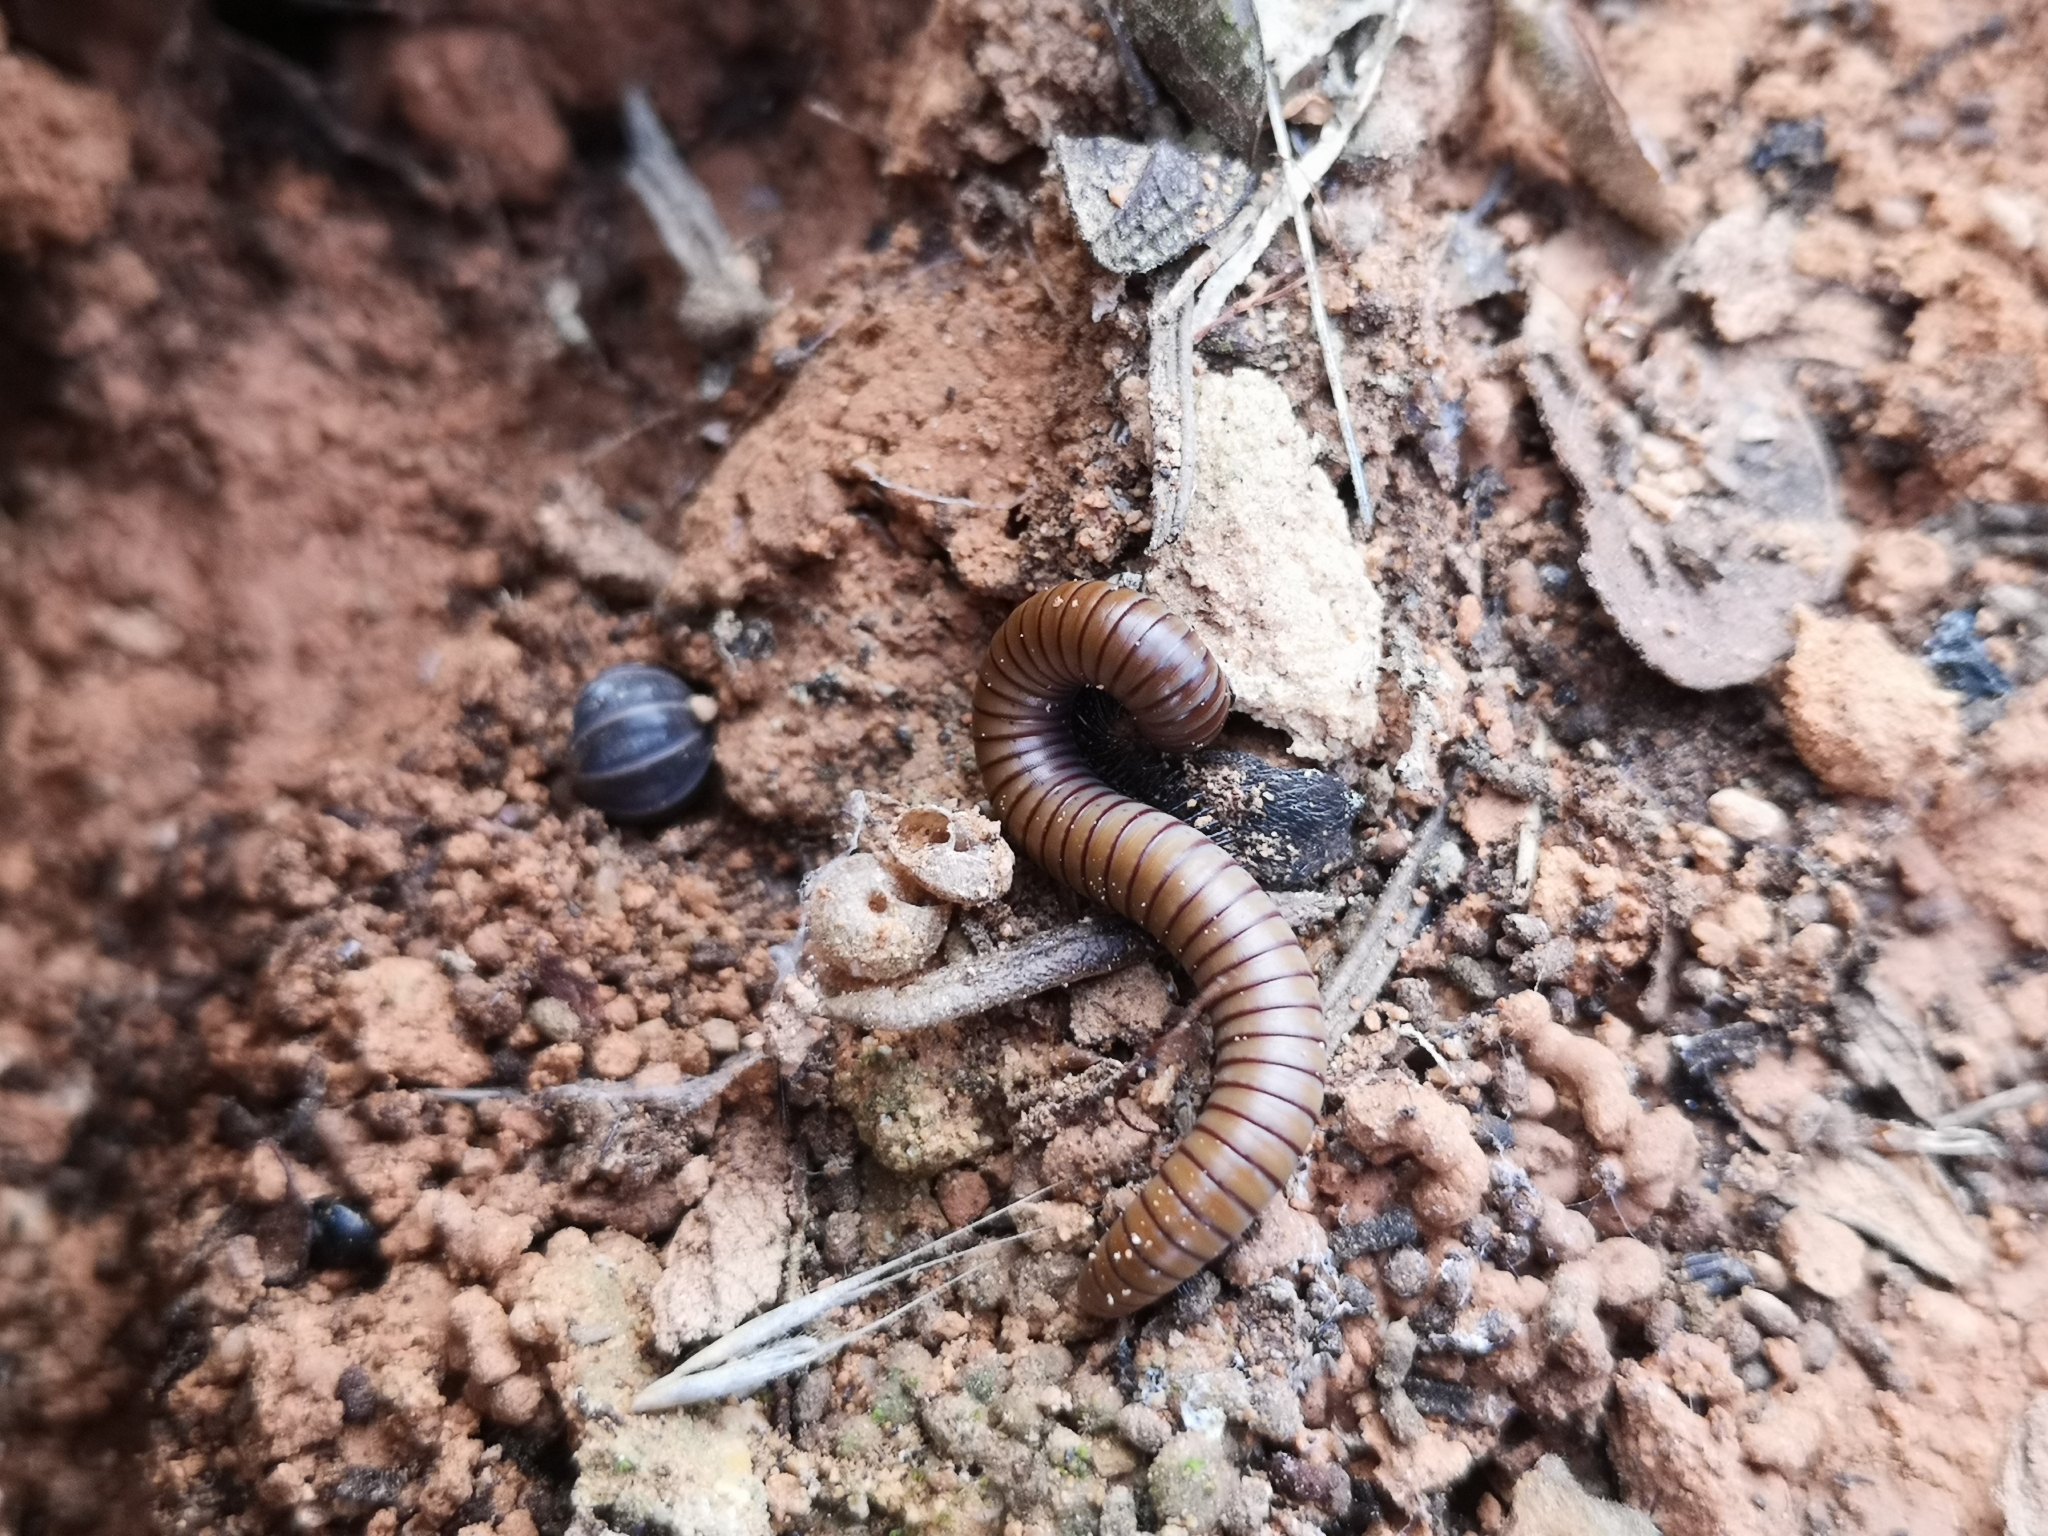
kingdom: Animalia
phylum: Arthropoda
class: Diplopoda
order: Julida
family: Julidae
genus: Ommatoiulus
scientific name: Ommatoiulus rutilans
